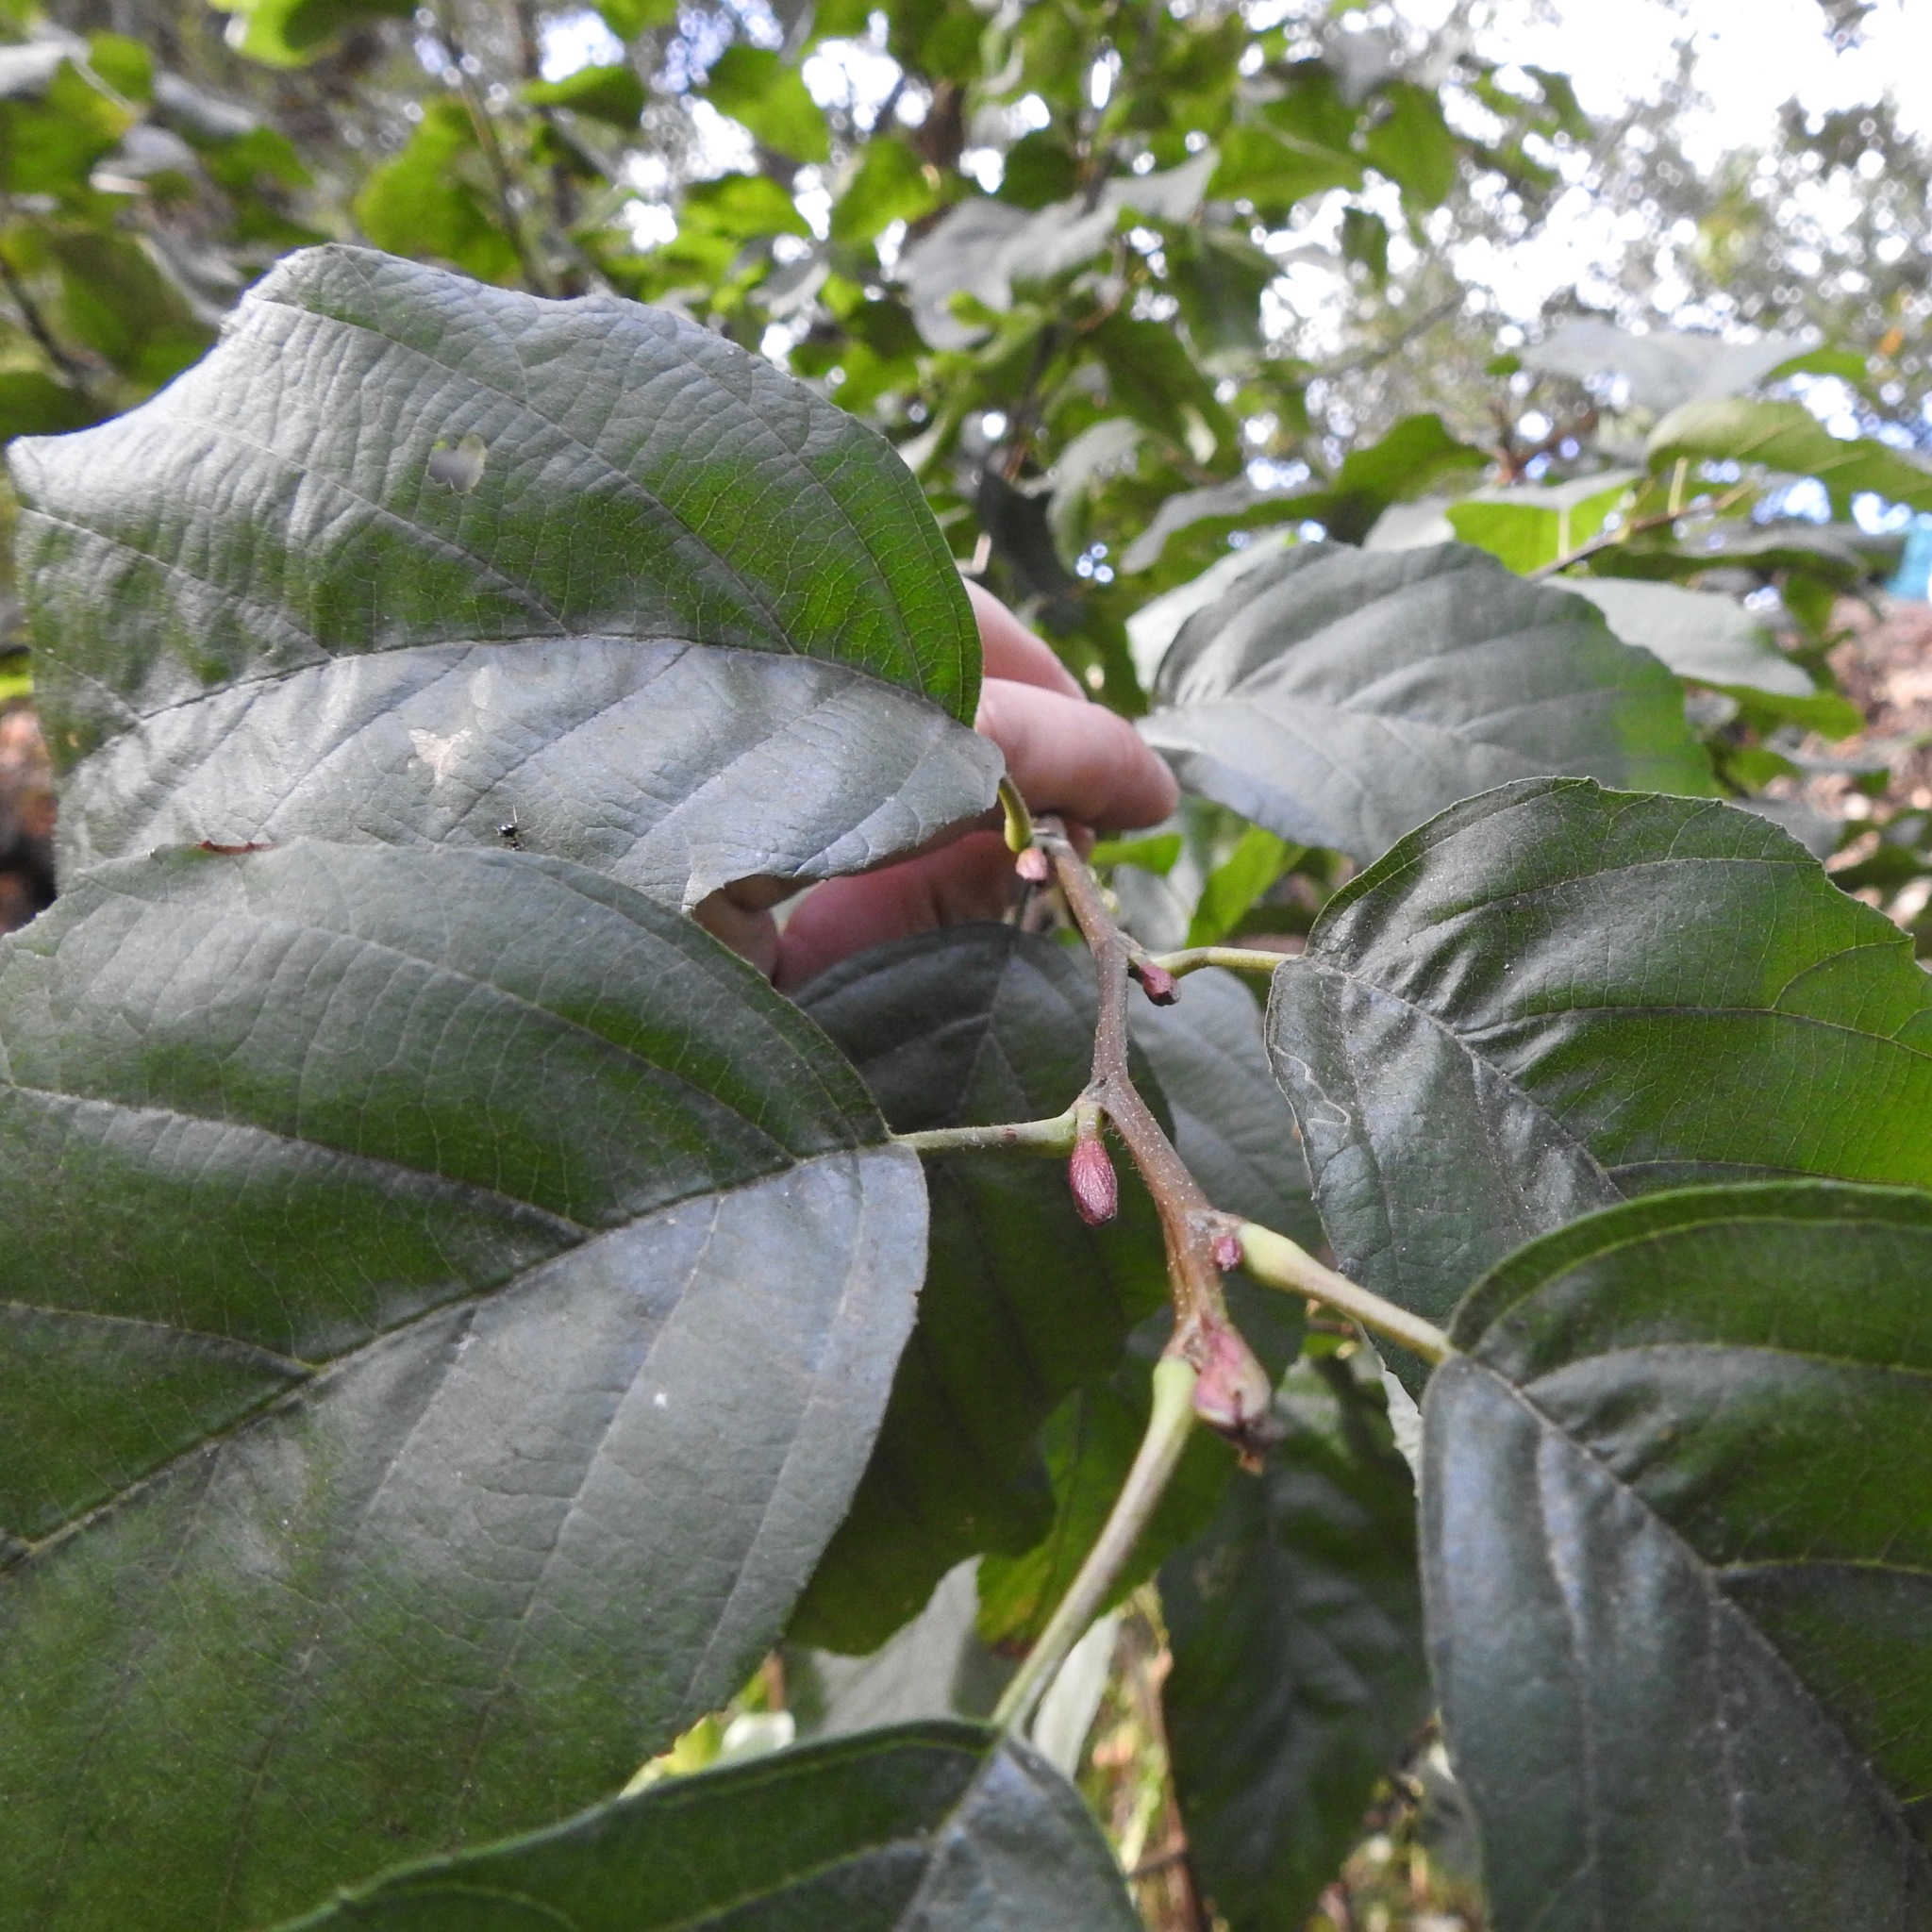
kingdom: Plantae
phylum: Tracheophyta
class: Magnoliopsida
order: Fagales
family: Betulaceae
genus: Alnus
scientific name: Alnus rhombifolia
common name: California alder
